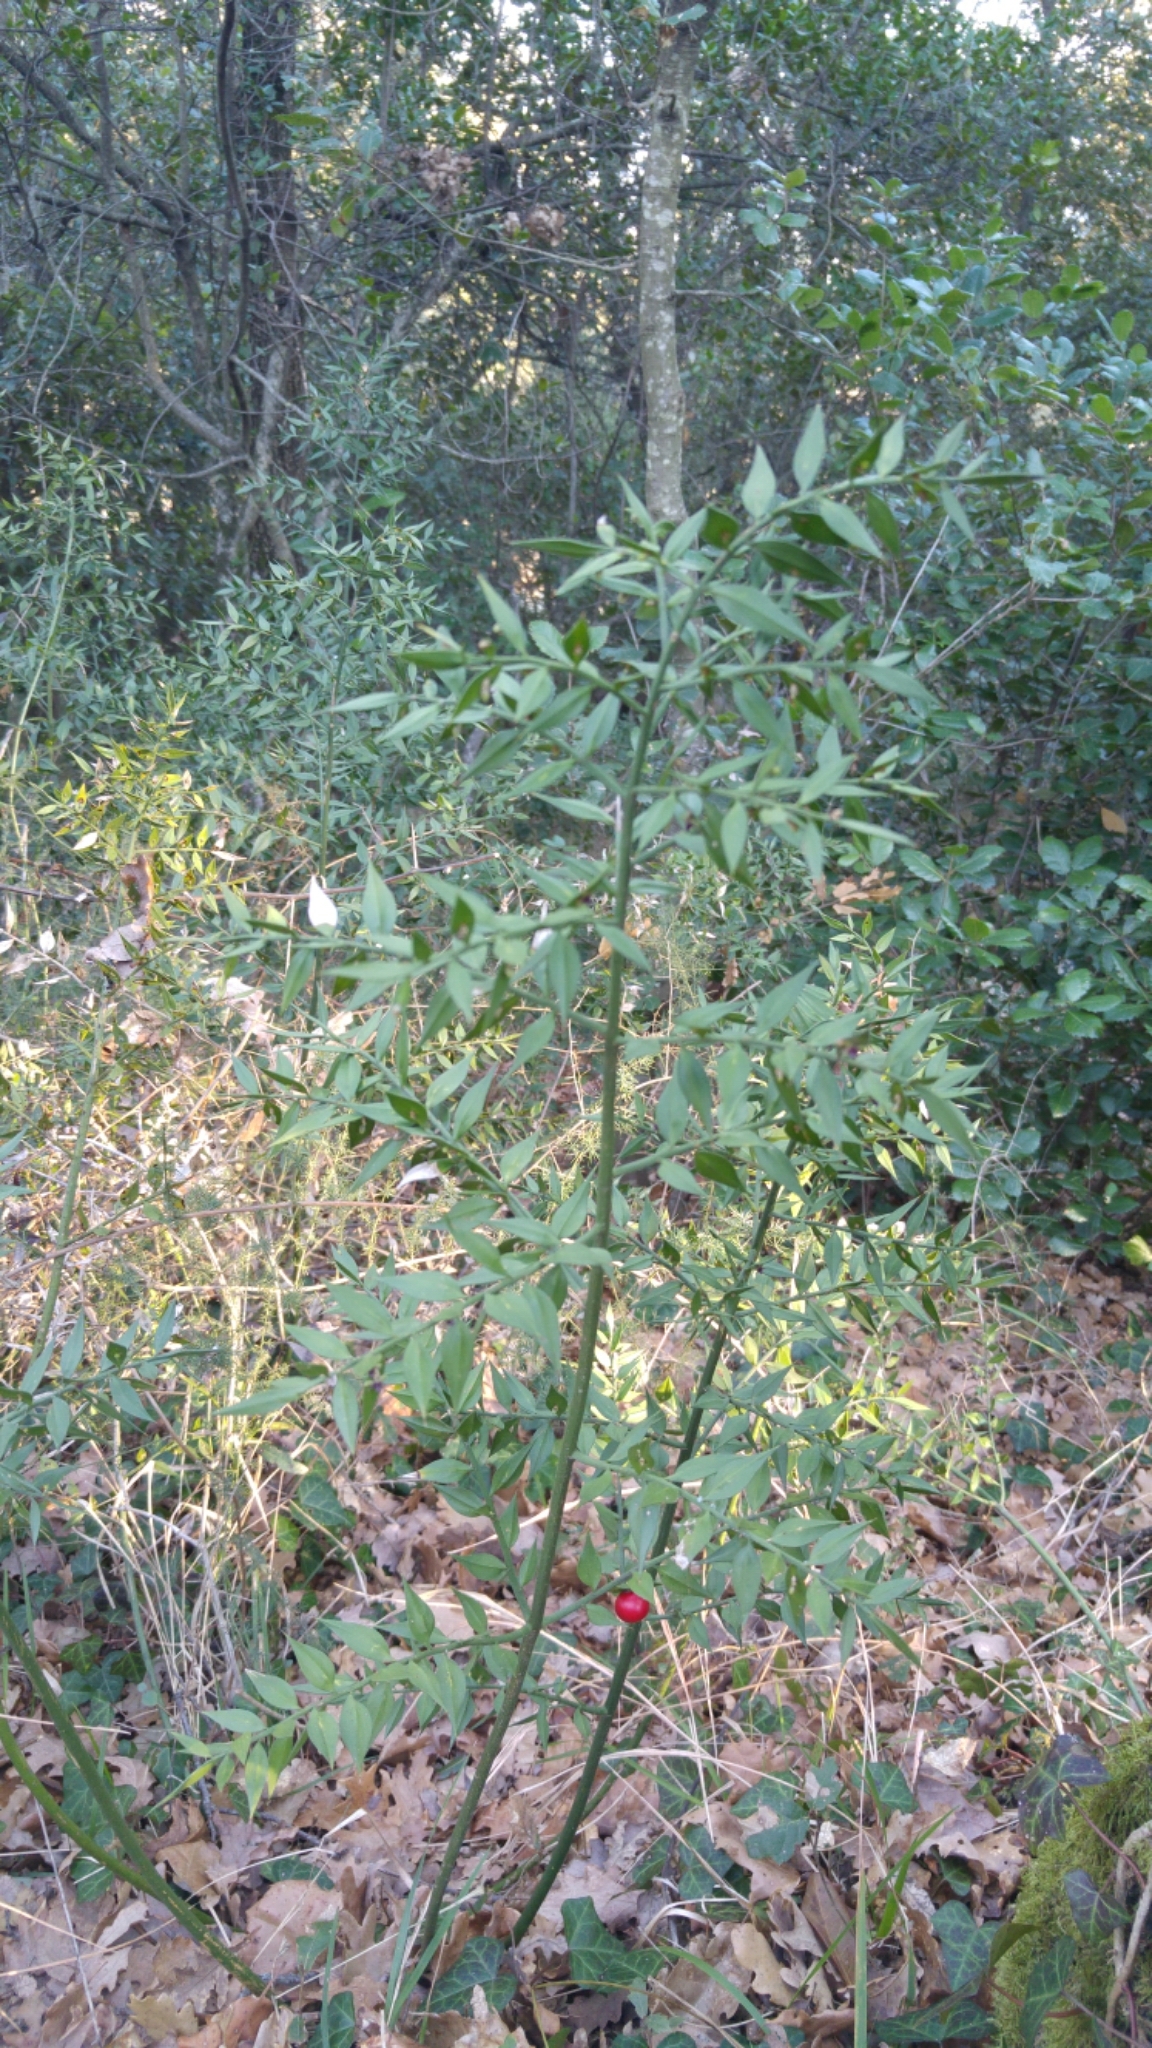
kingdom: Plantae
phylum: Tracheophyta
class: Liliopsida
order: Asparagales
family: Asparagaceae
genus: Ruscus
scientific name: Ruscus aculeatus
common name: Butcher's-broom
